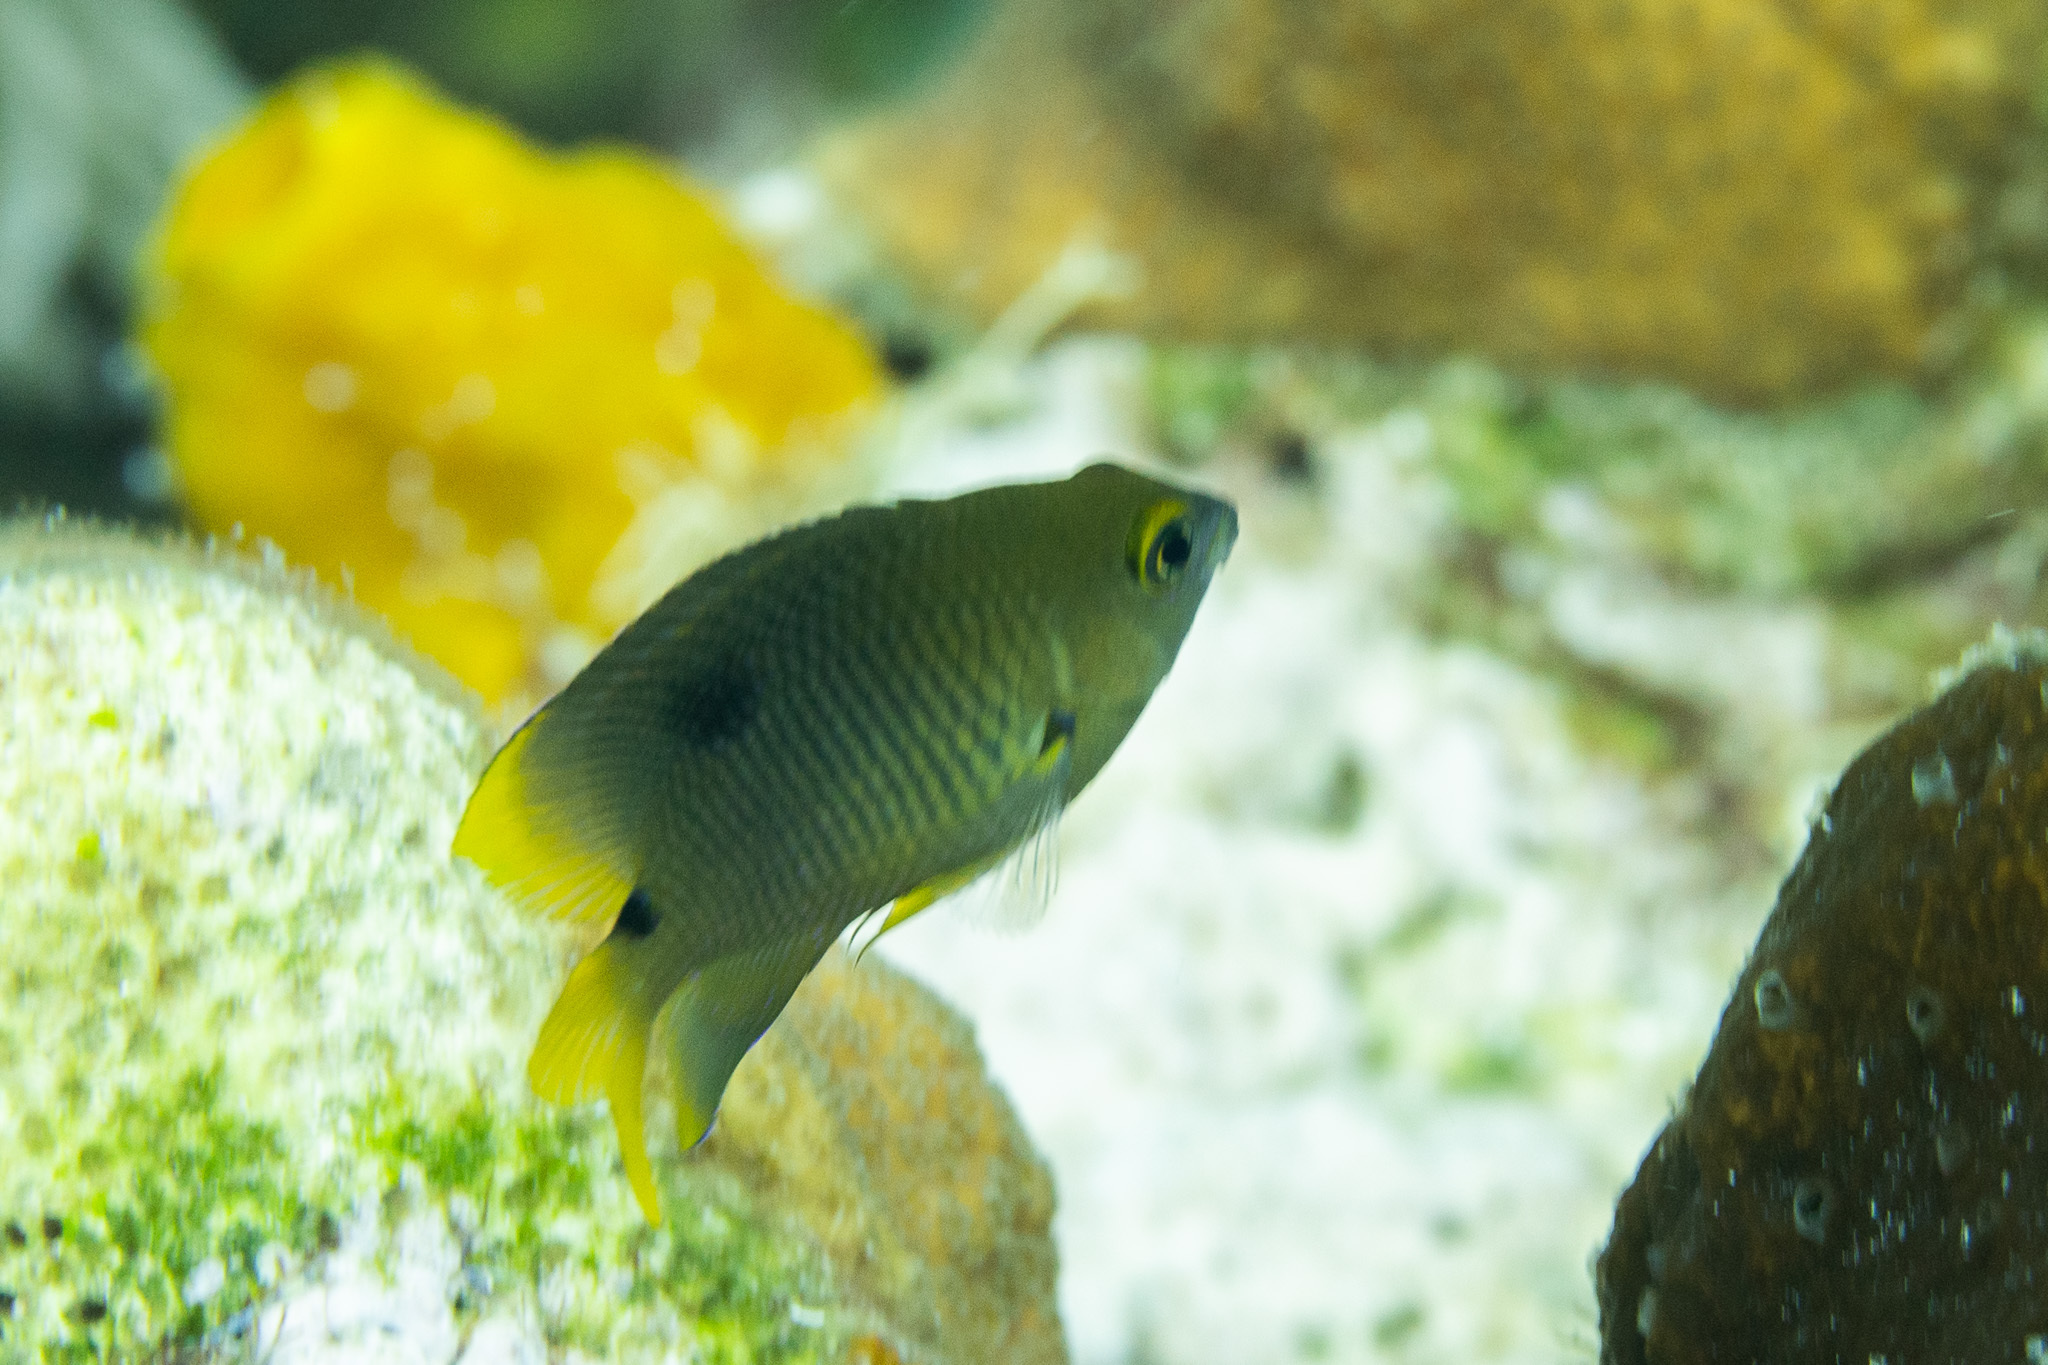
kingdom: Animalia
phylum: Chordata
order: Perciformes
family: Pomacentridae
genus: Stegastes
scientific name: Stegastes planifrons
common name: Threespot damselfish
